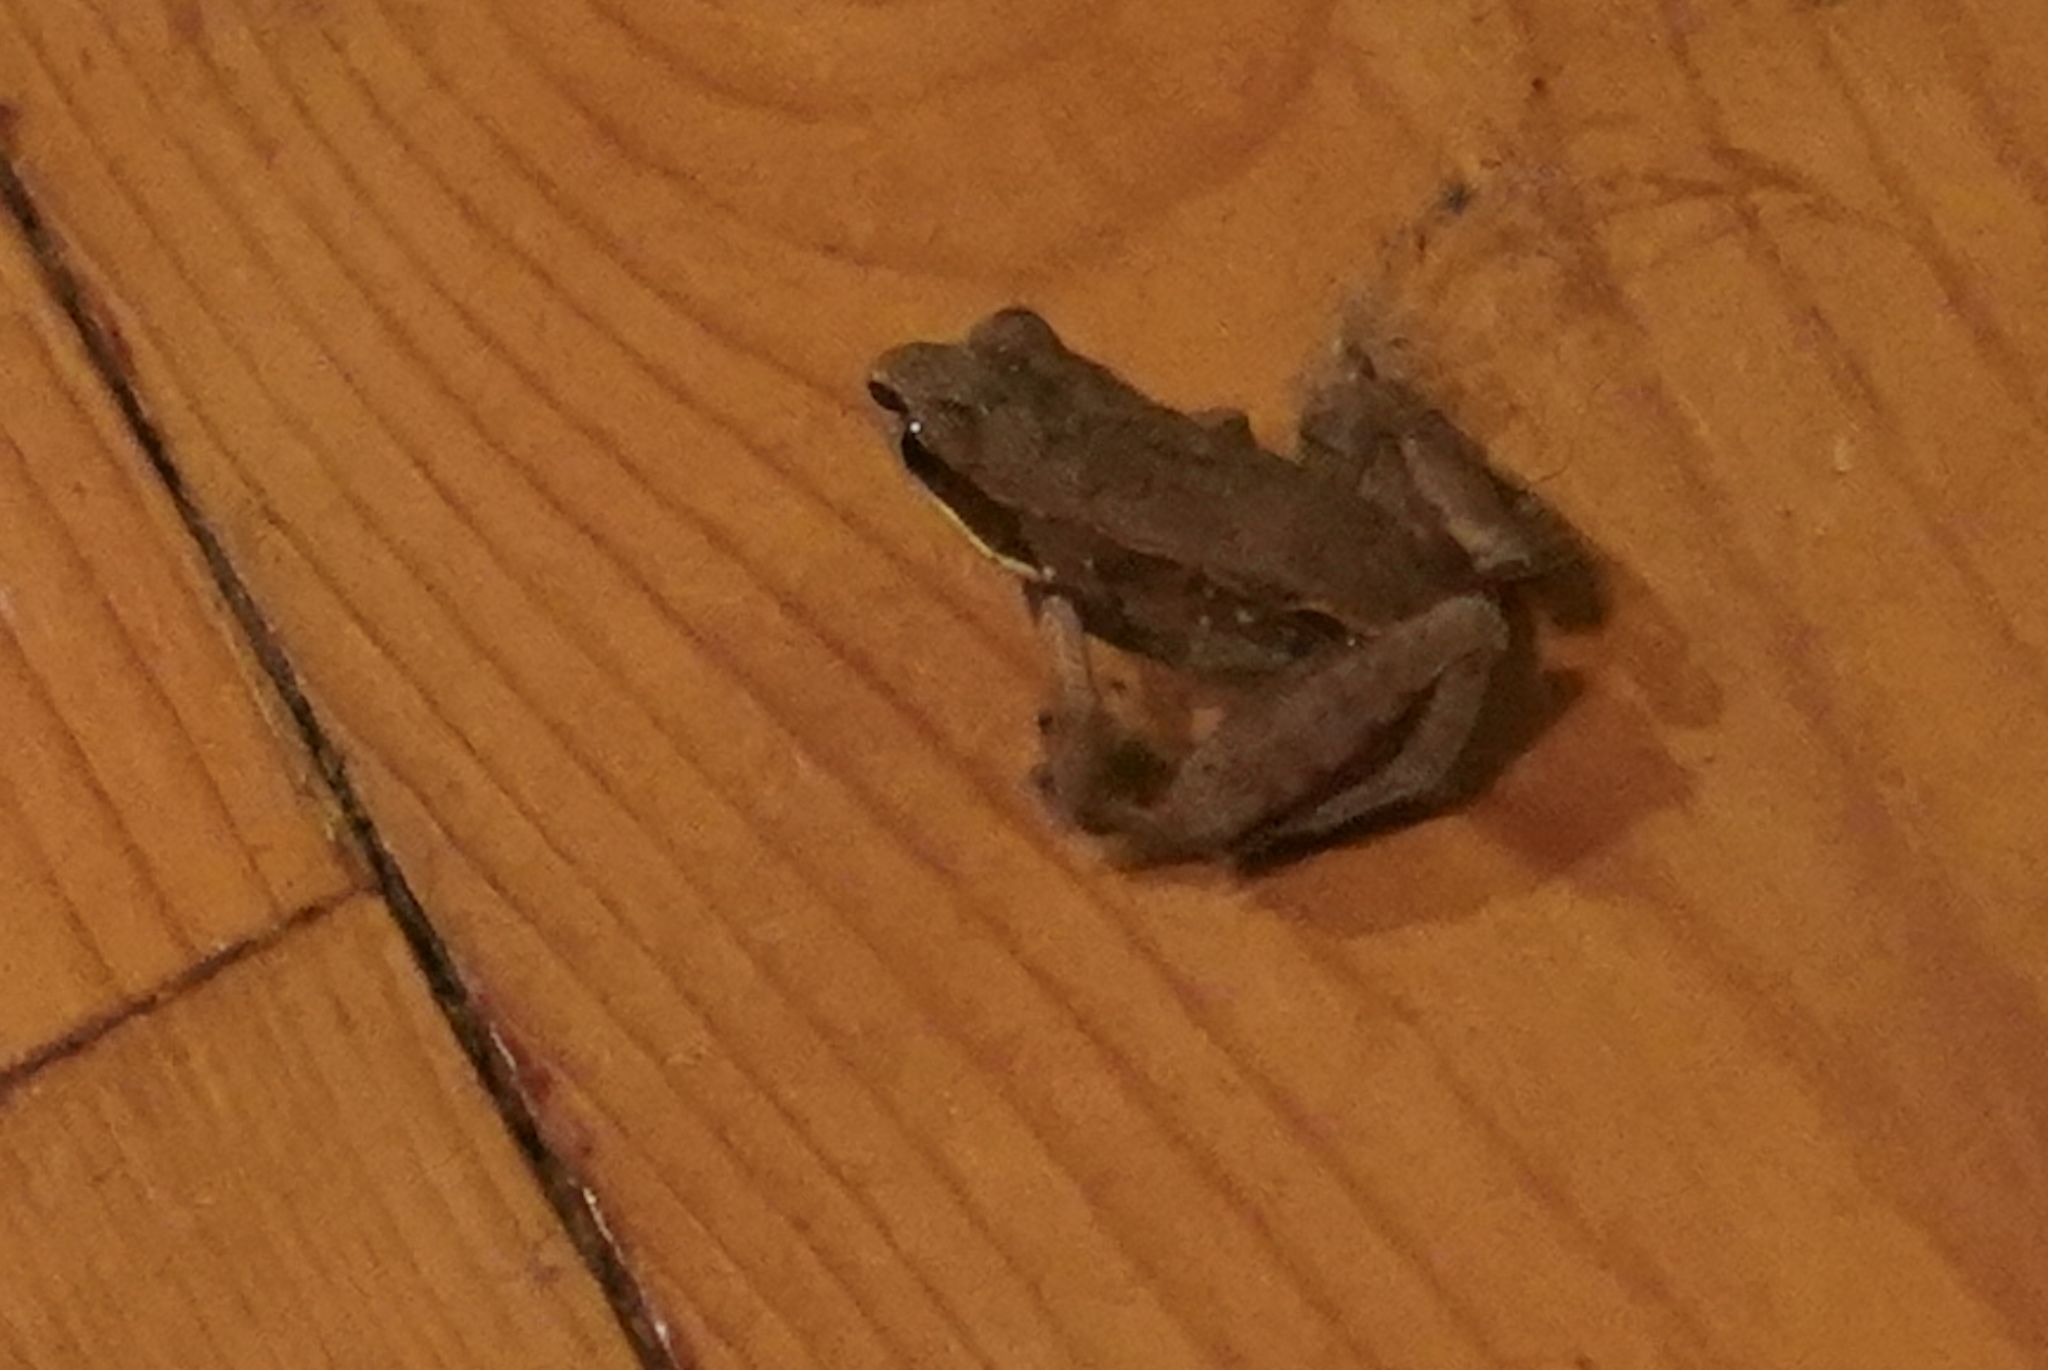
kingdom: Animalia
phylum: Chordata
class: Amphibia
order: Anura
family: Ranidae
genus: Lithobates
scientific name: Lithobates sylvaticus
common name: Wood frog
